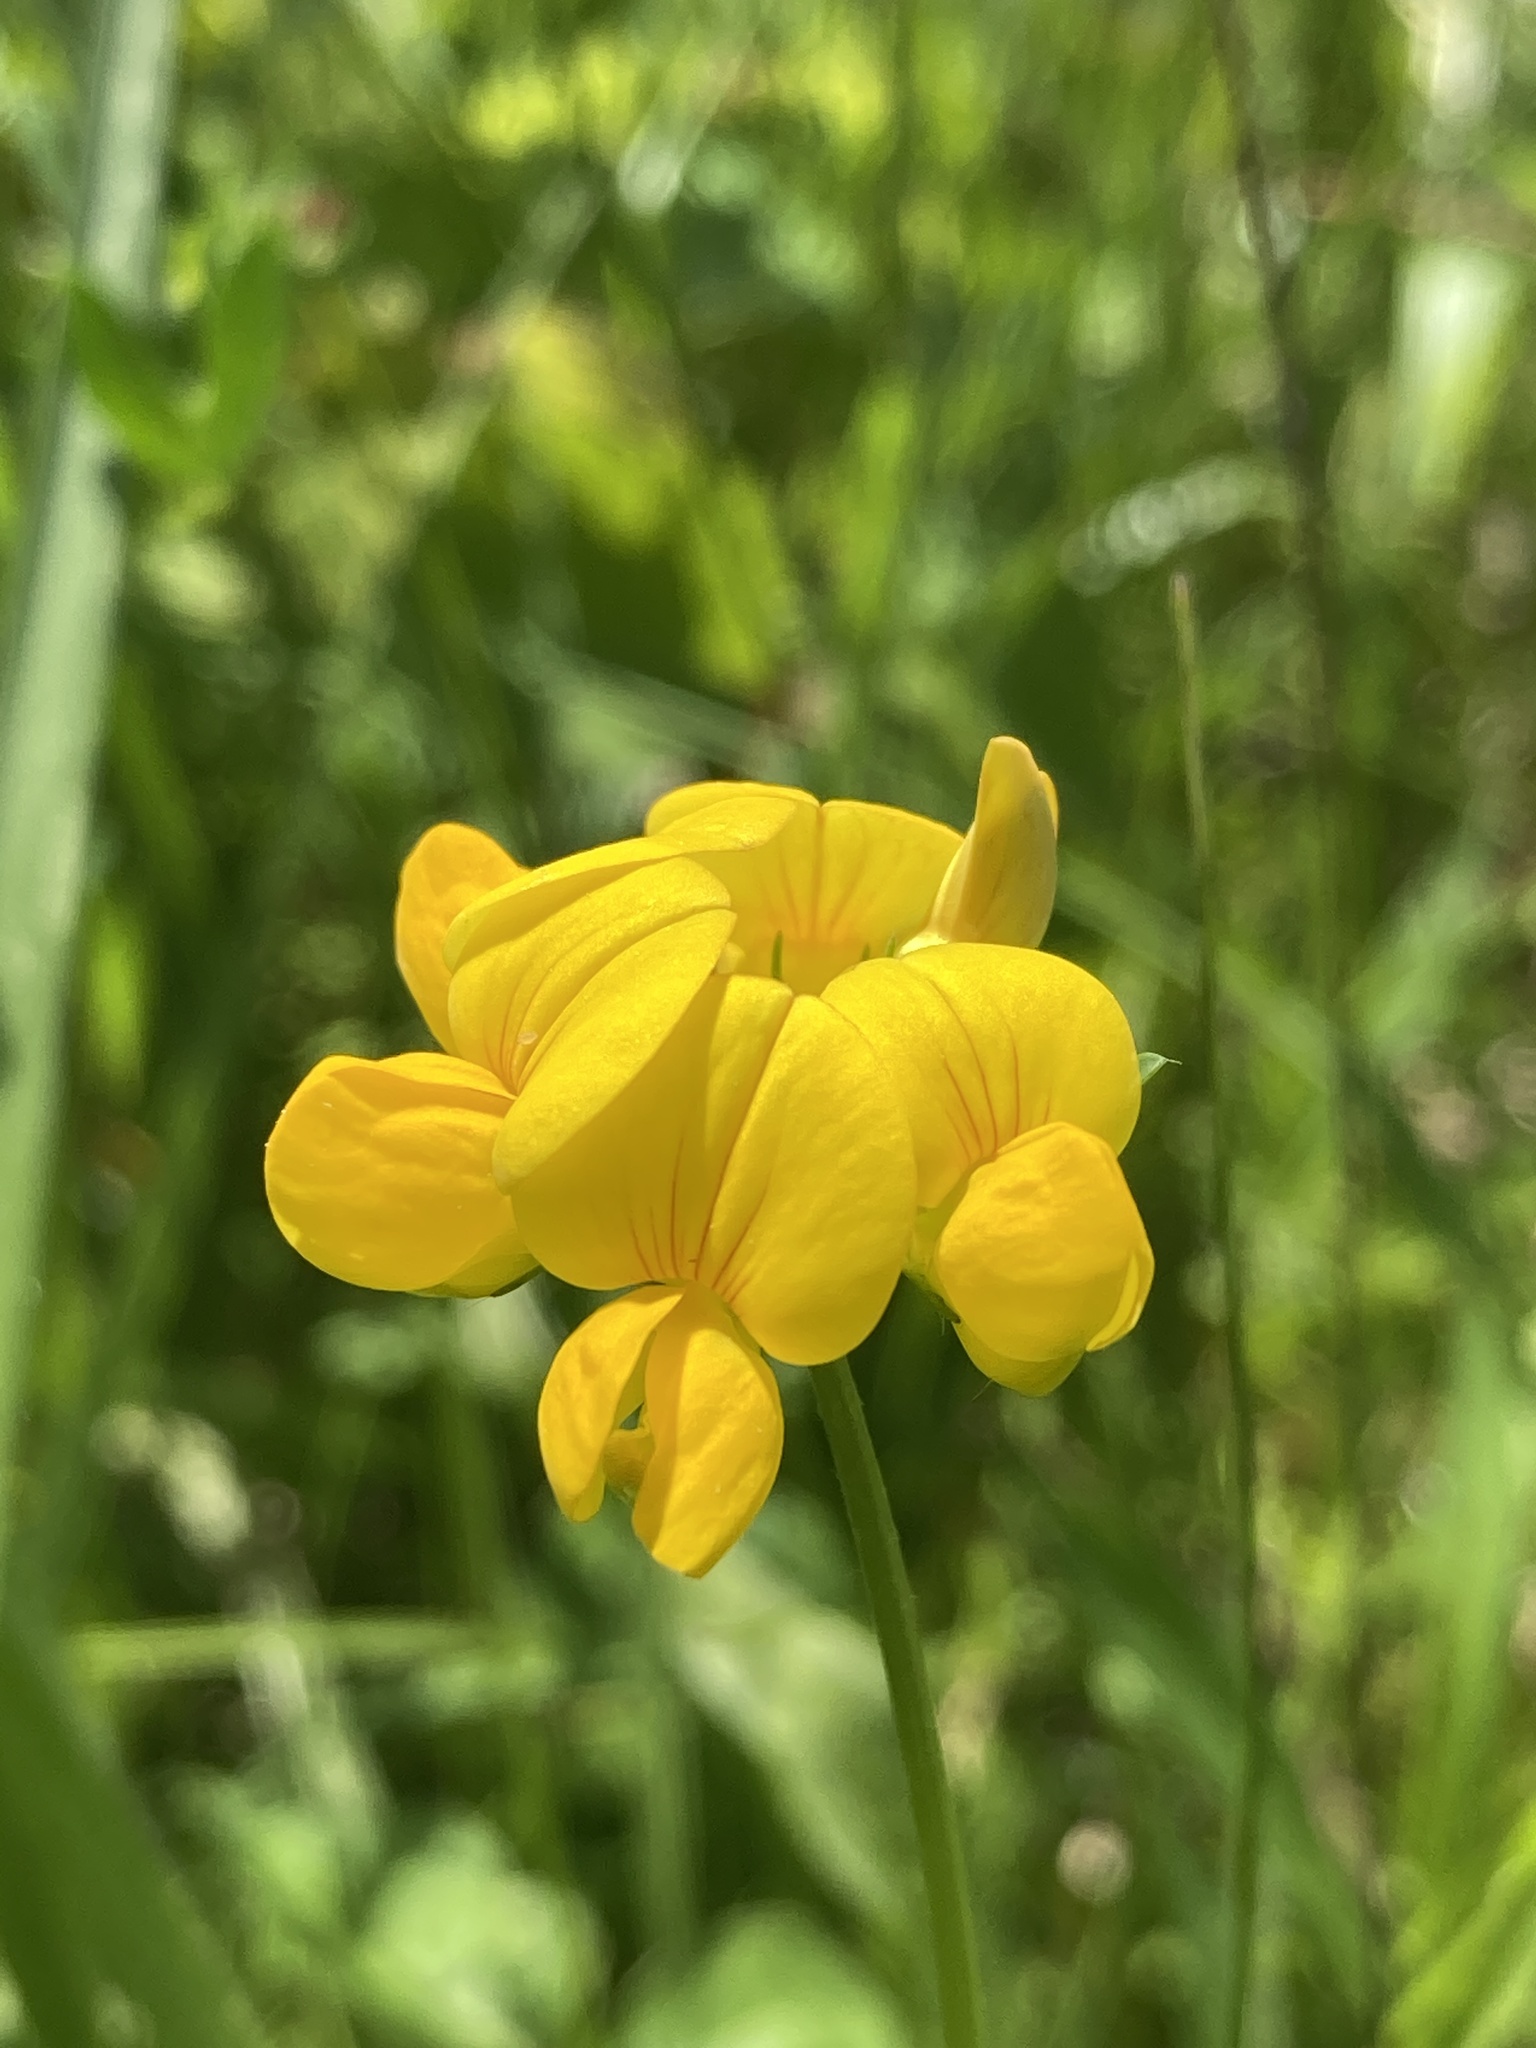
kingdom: Plantae
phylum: Tracheophyta
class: Magnoliopsida
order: Fabales
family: Fabaceae
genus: Lotus
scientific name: Lotus corniculatus
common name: Common bird's-foot-trefoil
